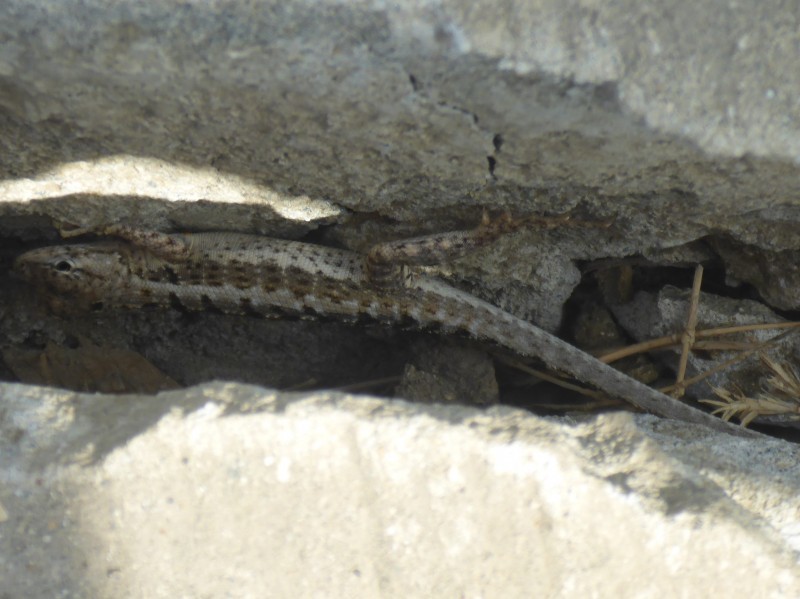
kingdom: Animalia
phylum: Chordata
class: Squamata
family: Tropiduridae
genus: Microlophus
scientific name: Microlophus occipitalis
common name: Knobbed pacific iguana
